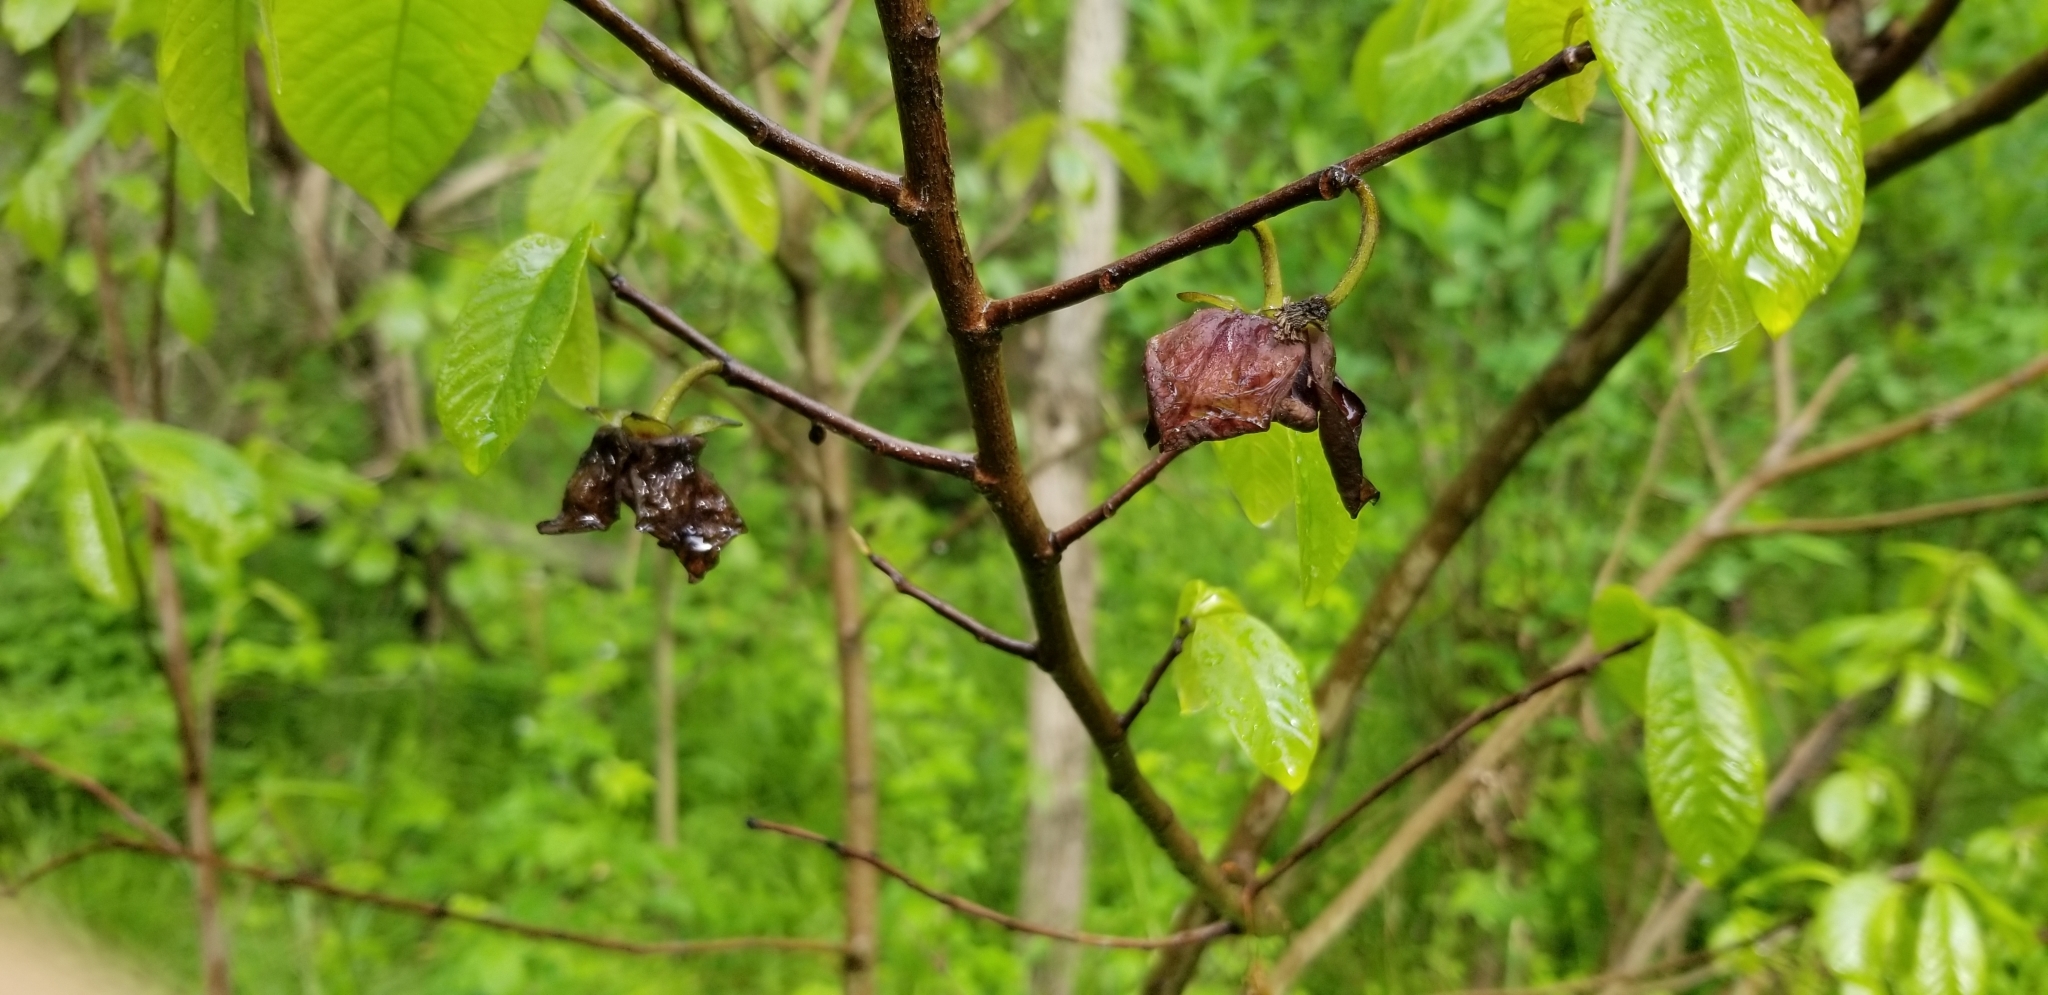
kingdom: Plantae
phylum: Tracheophyta
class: Magnoliopsida
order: Magnoliales
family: Annonaceae
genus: Asimina
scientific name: Asimina triloba
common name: Dog-banana
